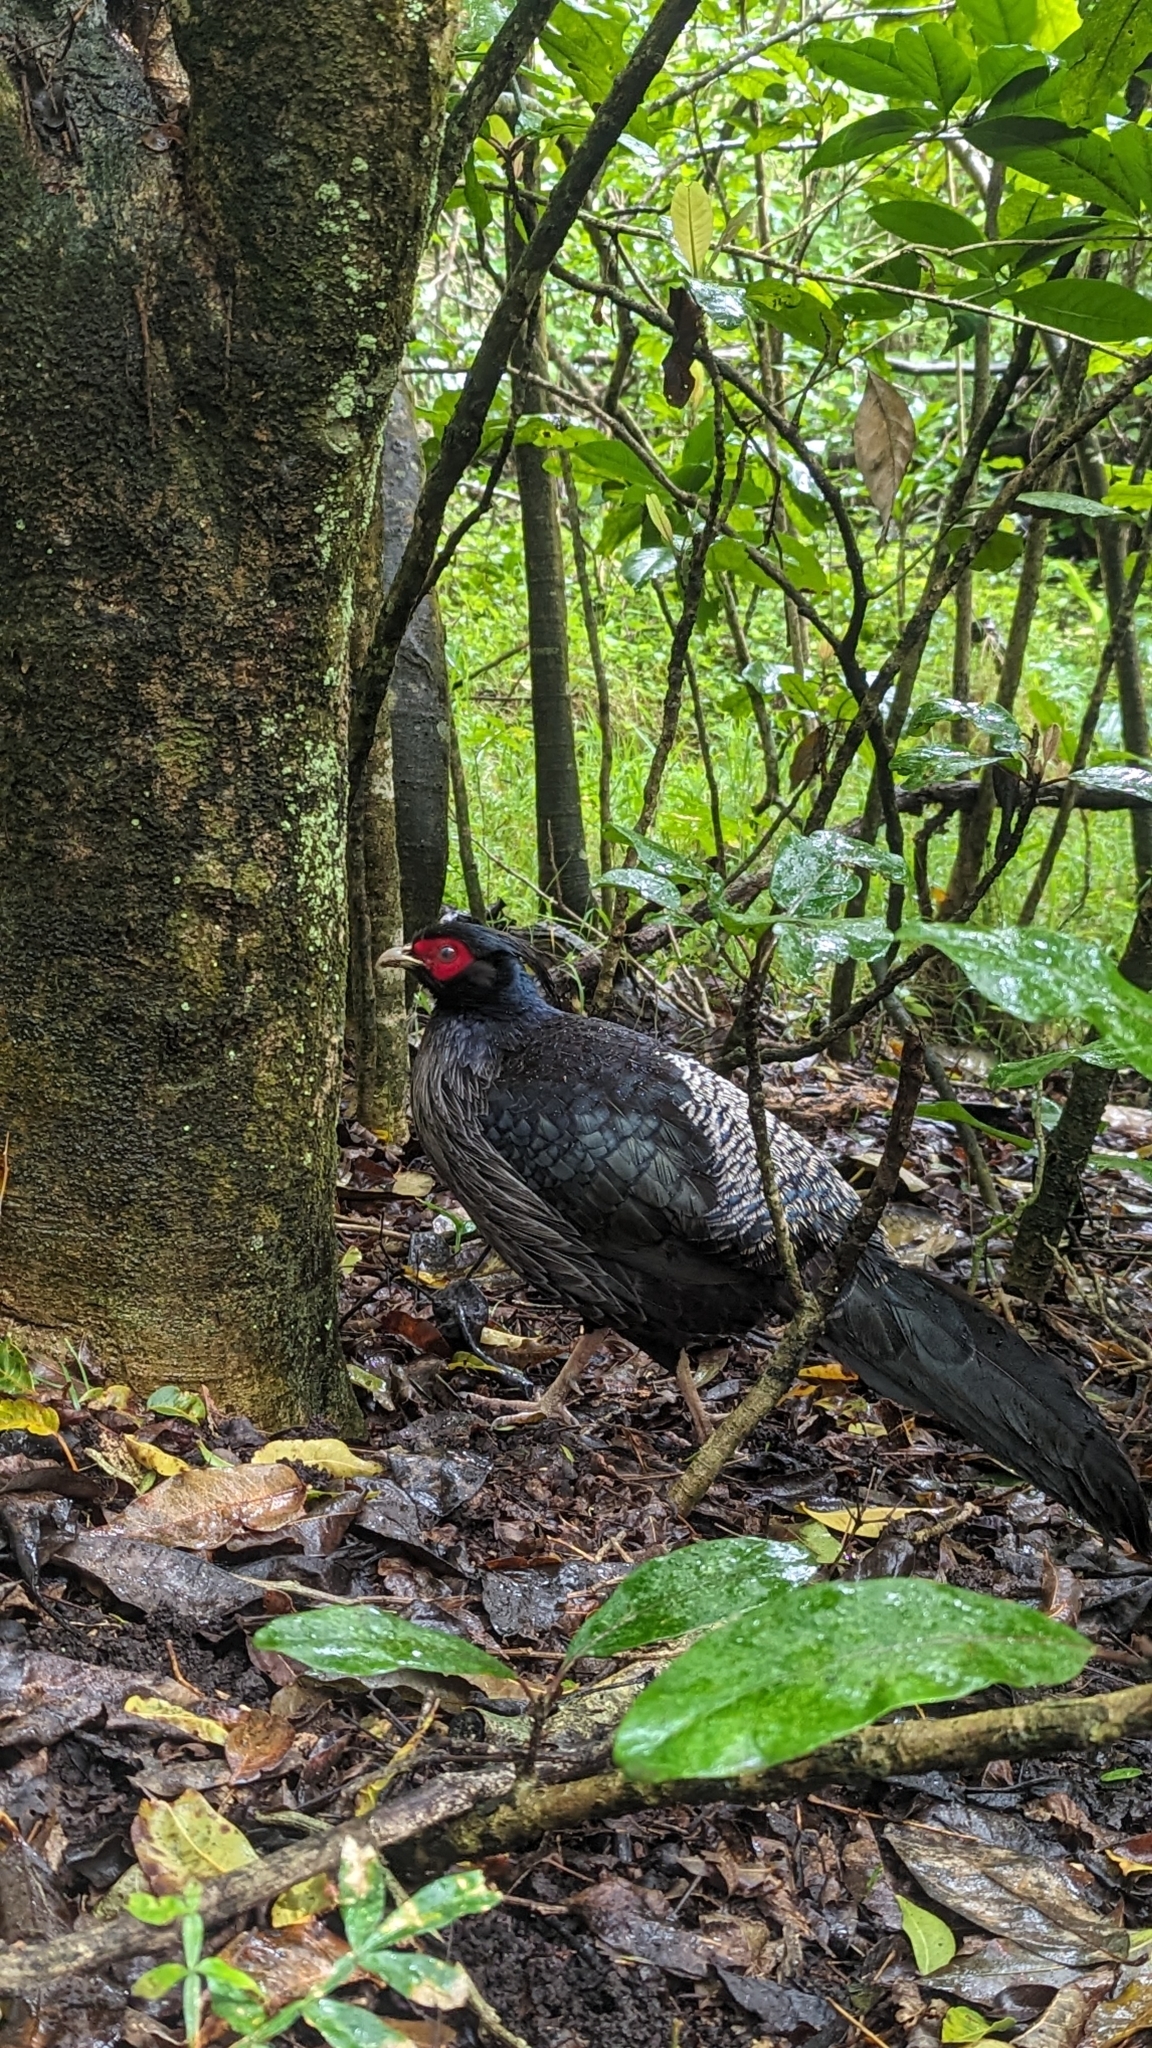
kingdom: Animalia
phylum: Chordata
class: Aves
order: Galliformes
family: Phasianidae
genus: Lophura
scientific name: Lophura leucomelanos
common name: Kalij pheasant
